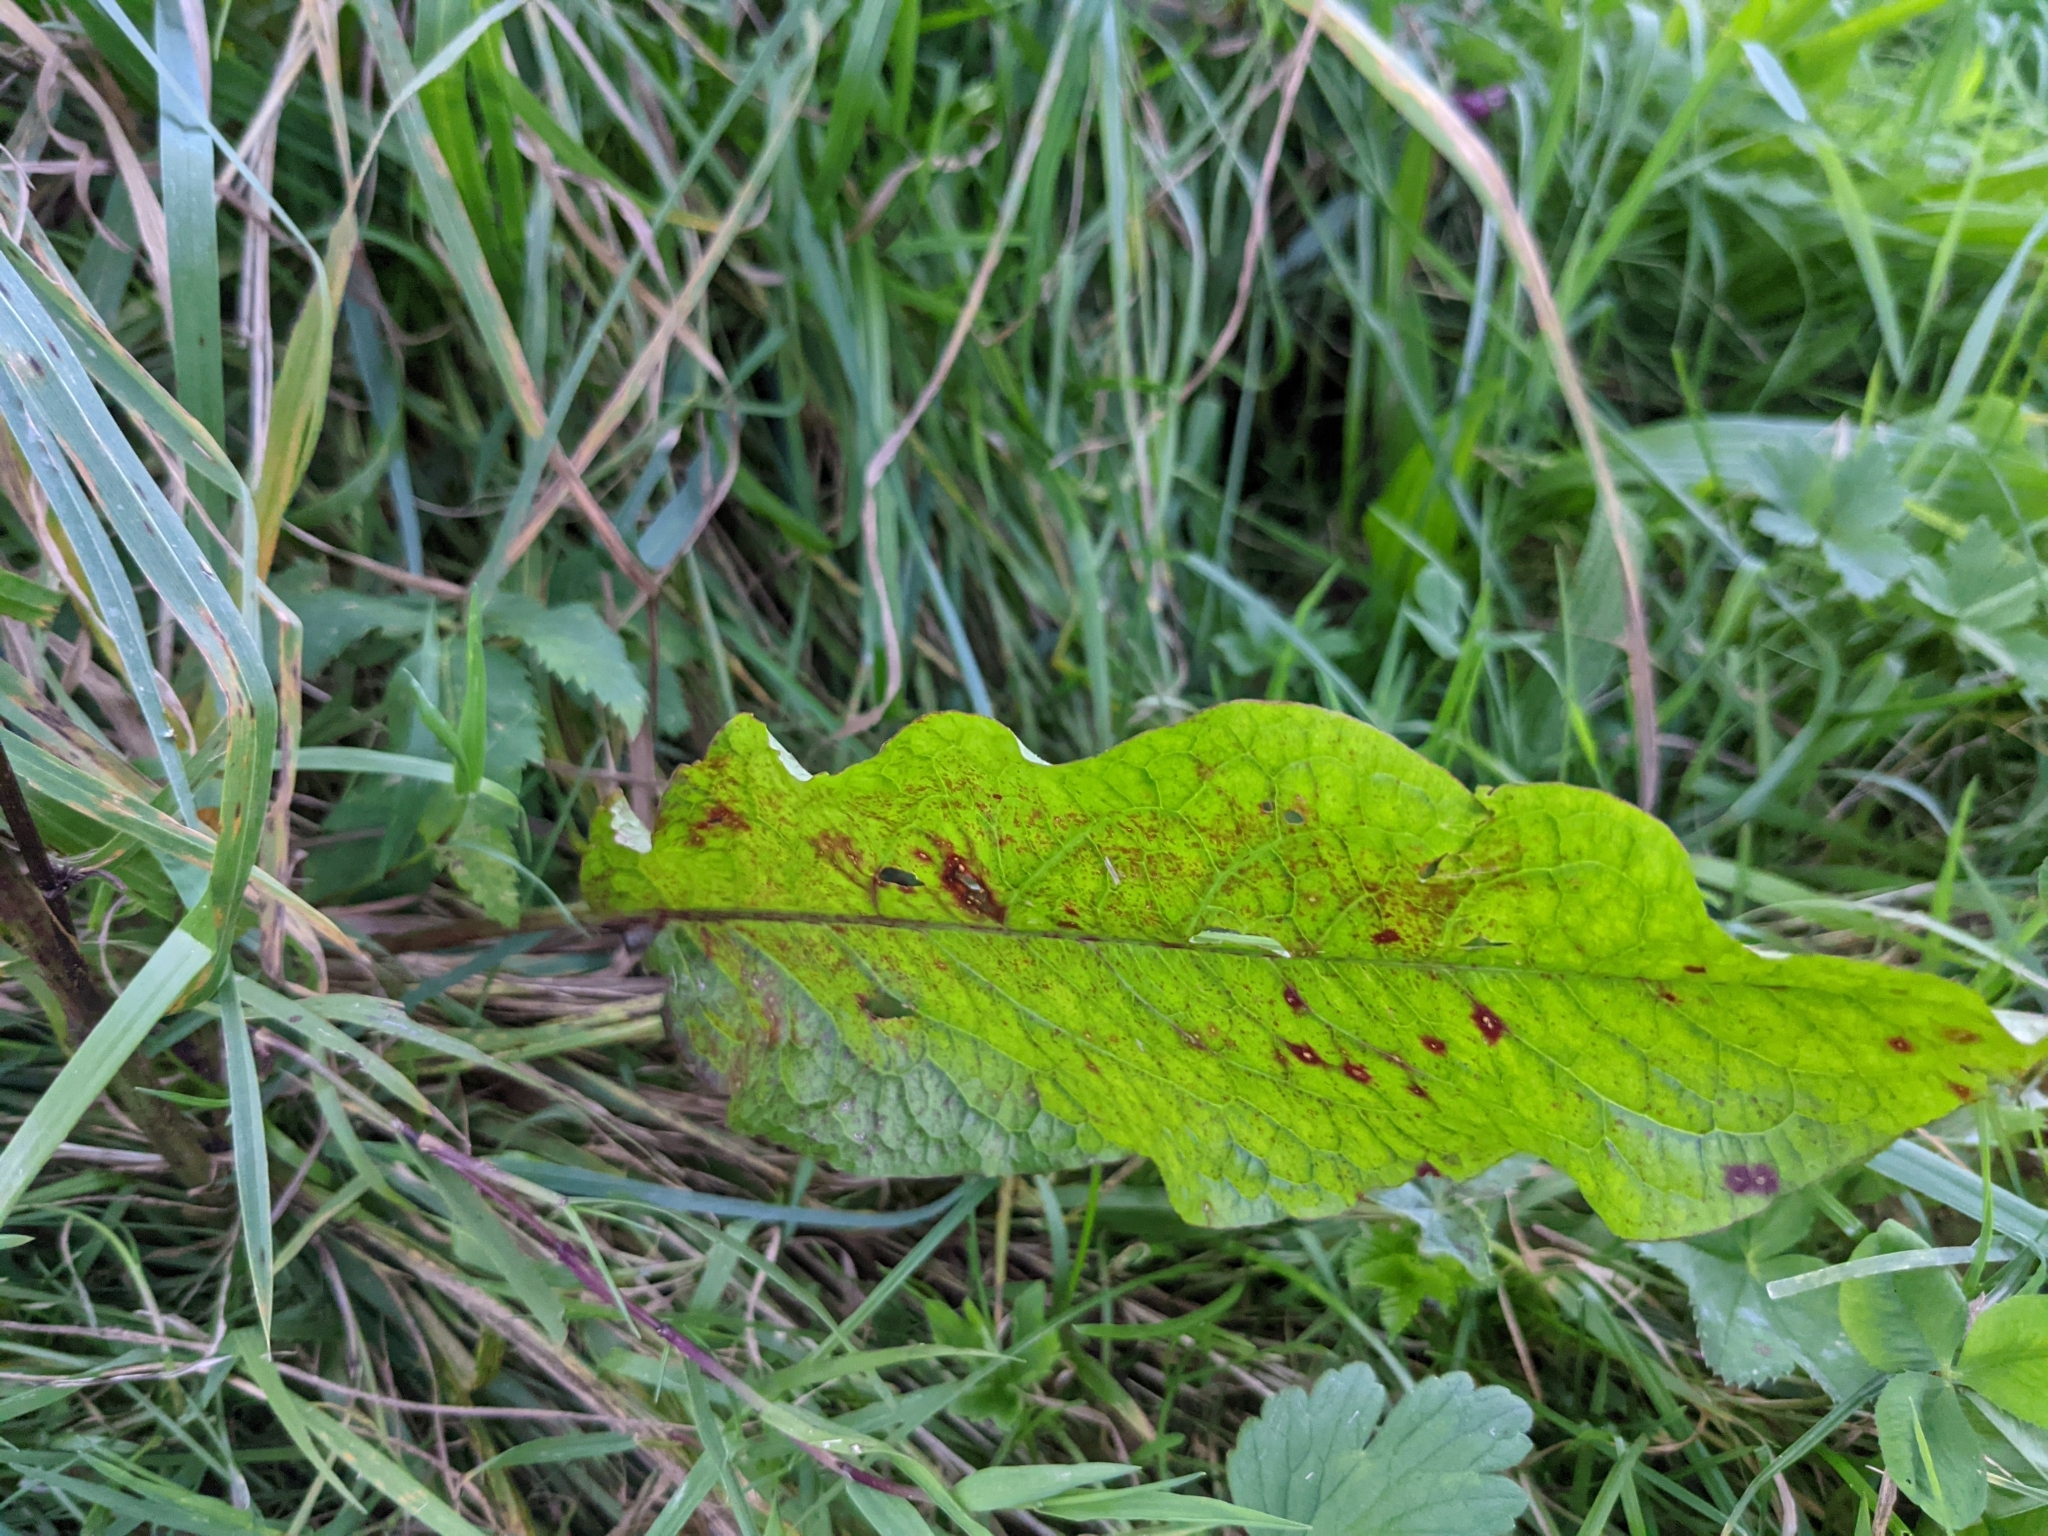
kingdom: Plantae
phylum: Tracheophyta
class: Magnoliopsida
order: Caryophyllales
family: Polygonaceae
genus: Rumex
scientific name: Rumex obtusifolius
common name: Bitter dock
